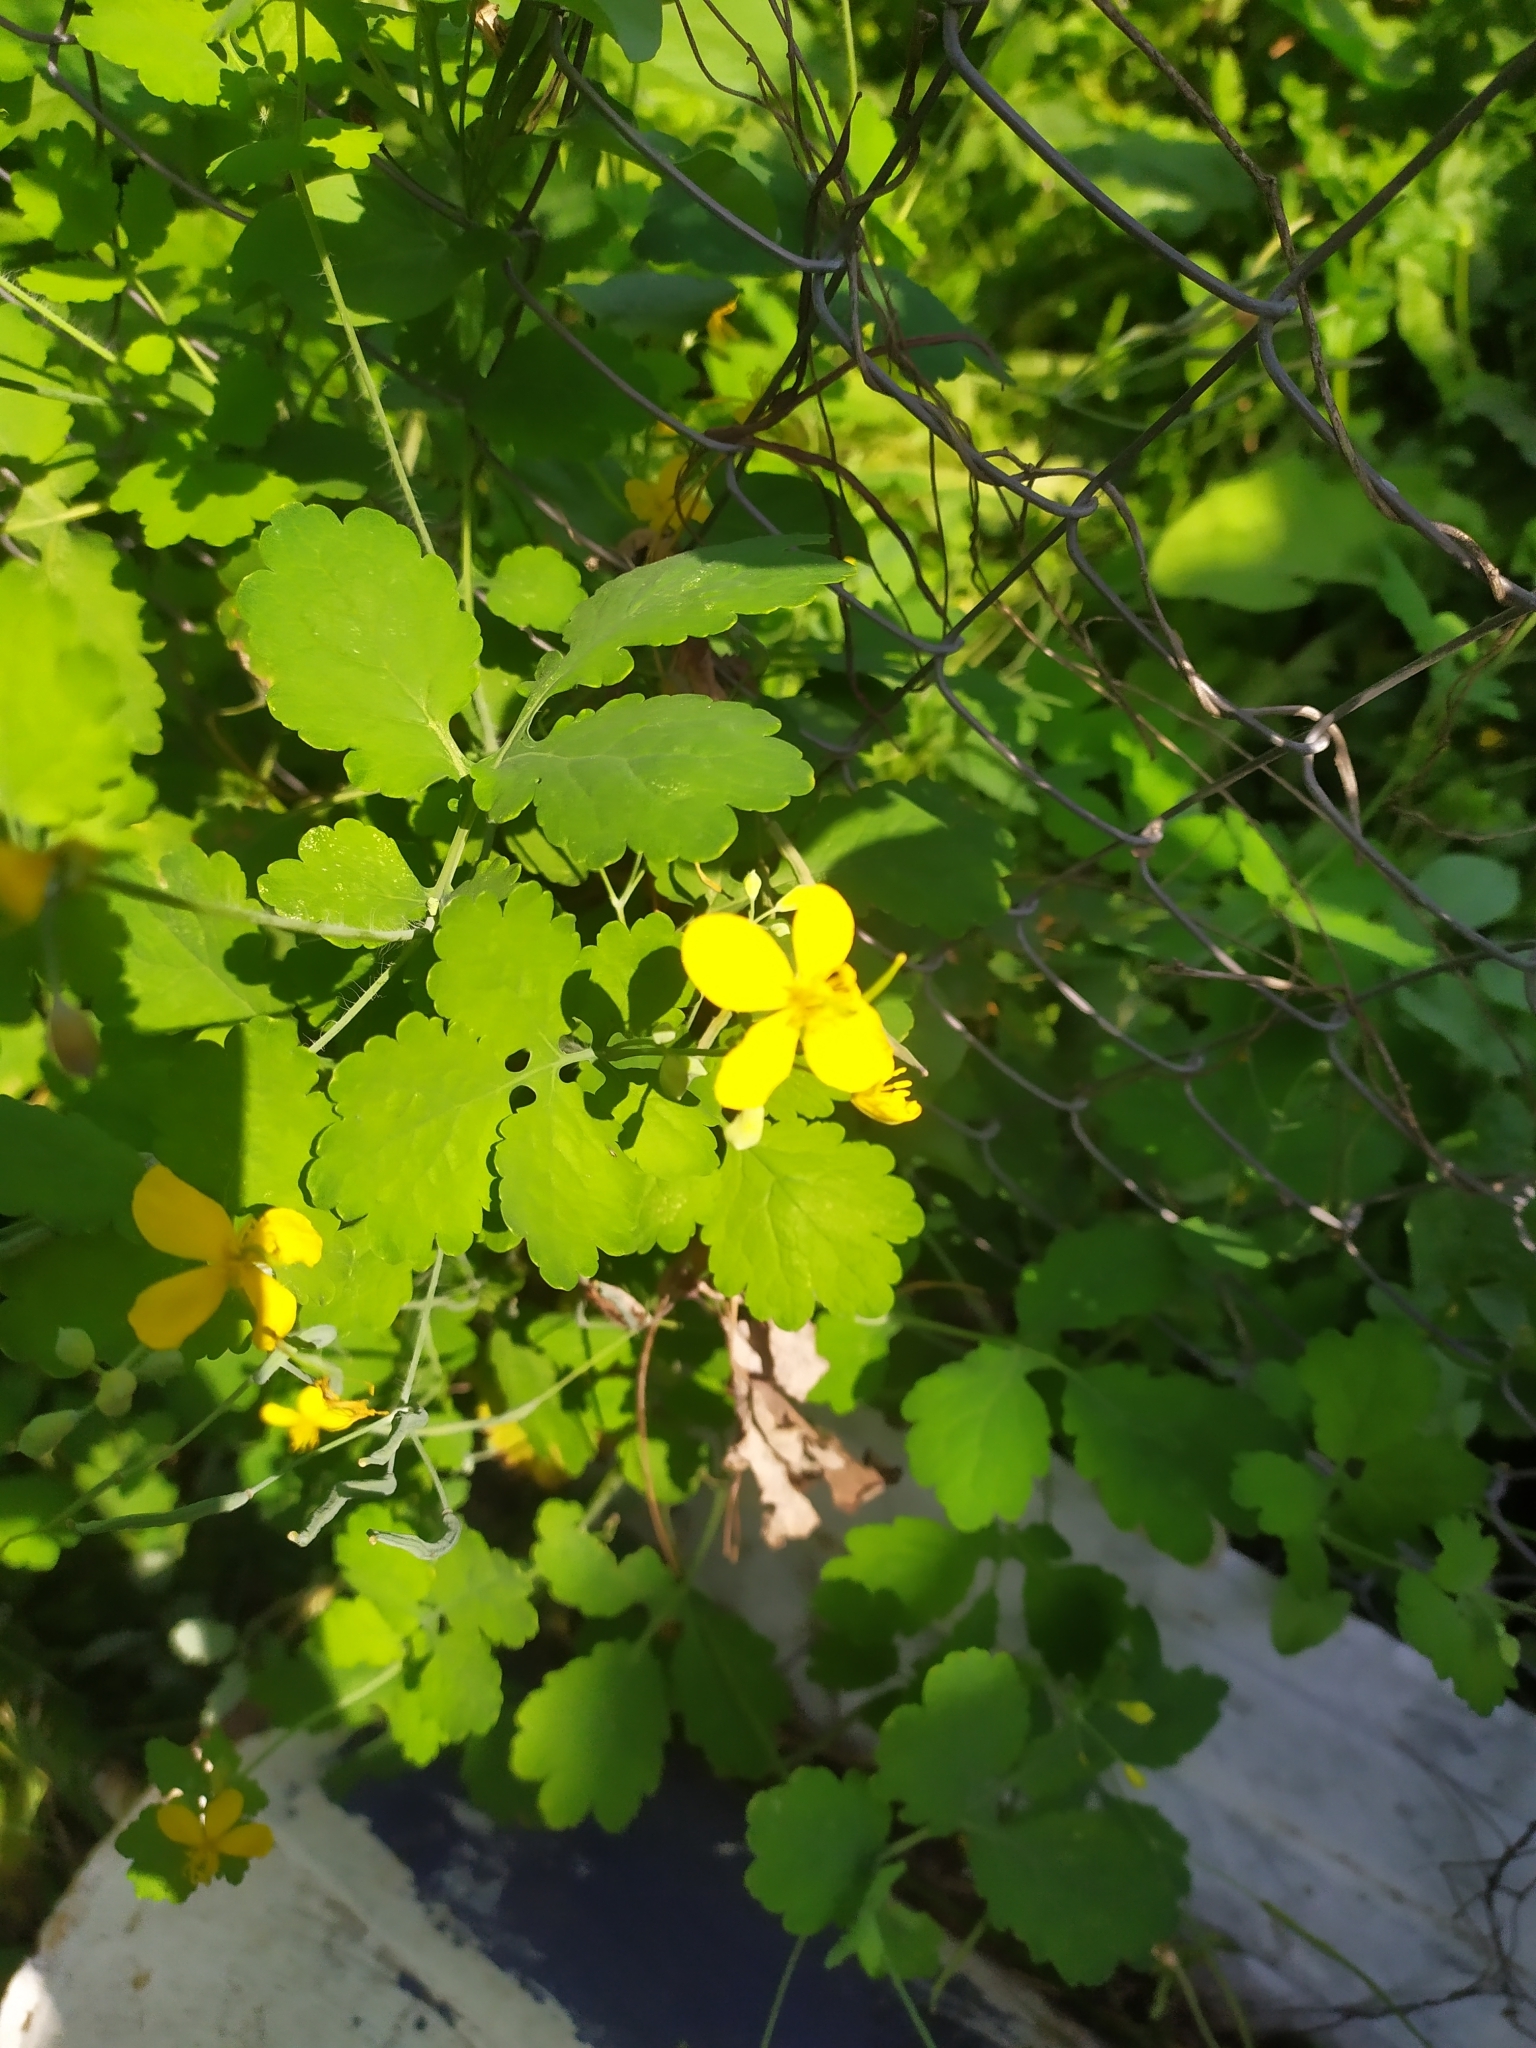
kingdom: Plantae
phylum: Tracheophyta
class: Magnoliopsida
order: Ranunculales
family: Papaveraceae
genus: Chelidonium
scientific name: Chelidonium majus
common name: Greater celandine
